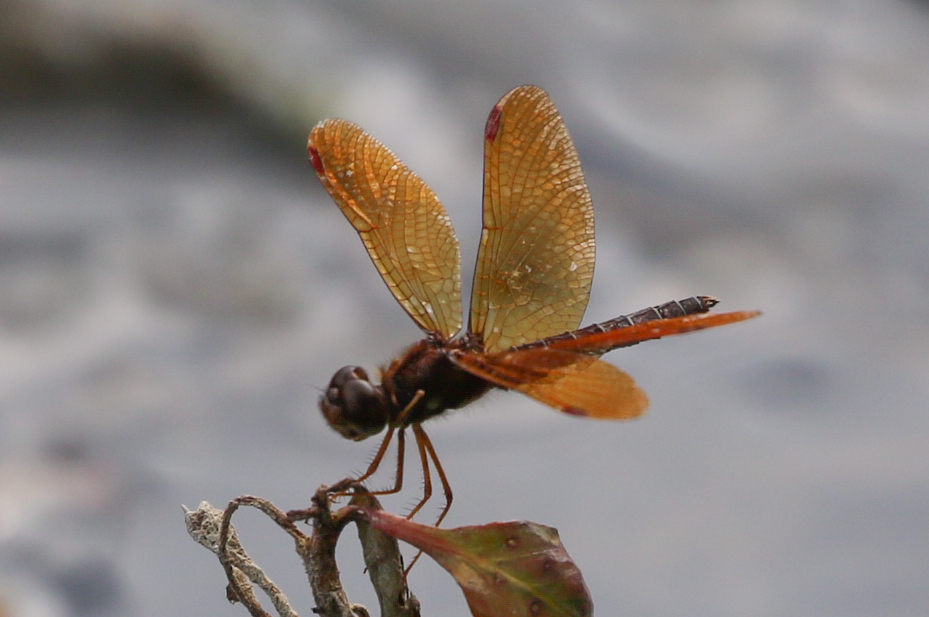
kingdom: Animalia
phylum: Arthropoda
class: Insecta
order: Odonata
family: Libellulidae
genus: Perithemis
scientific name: Perithemis tenera
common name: Eastern amberwing
